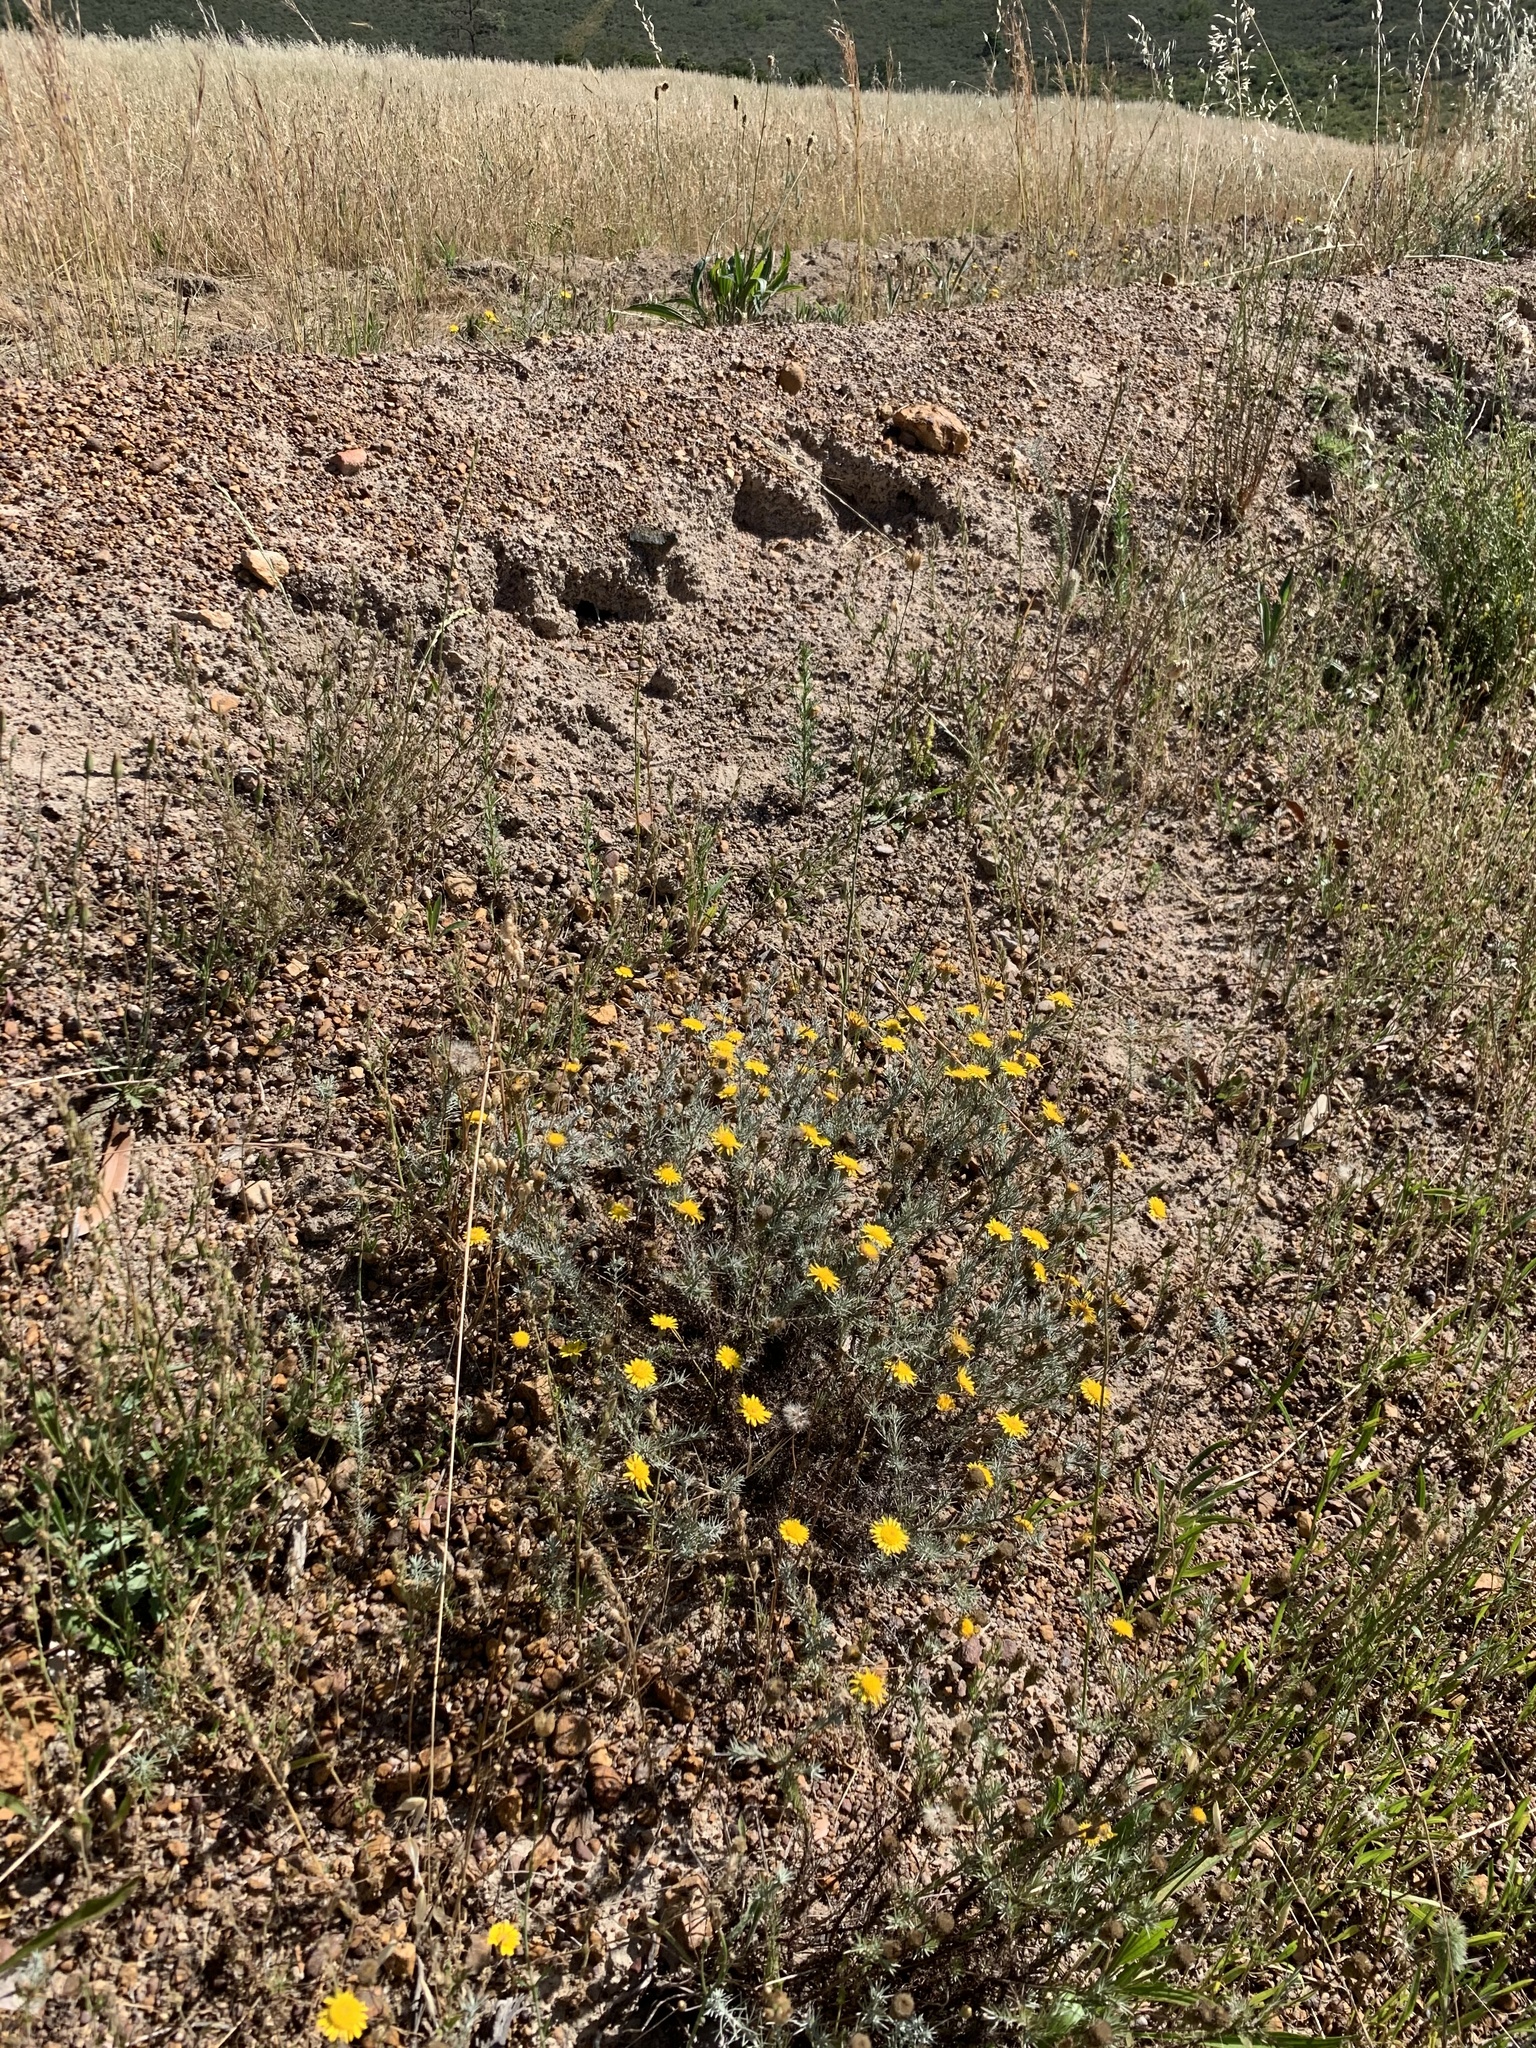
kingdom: Plantae
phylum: Tracheophyta
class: Magnoliopsida
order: Asterales
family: Asteraceae
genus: Leysera
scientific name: Leysera gnaphalodes
